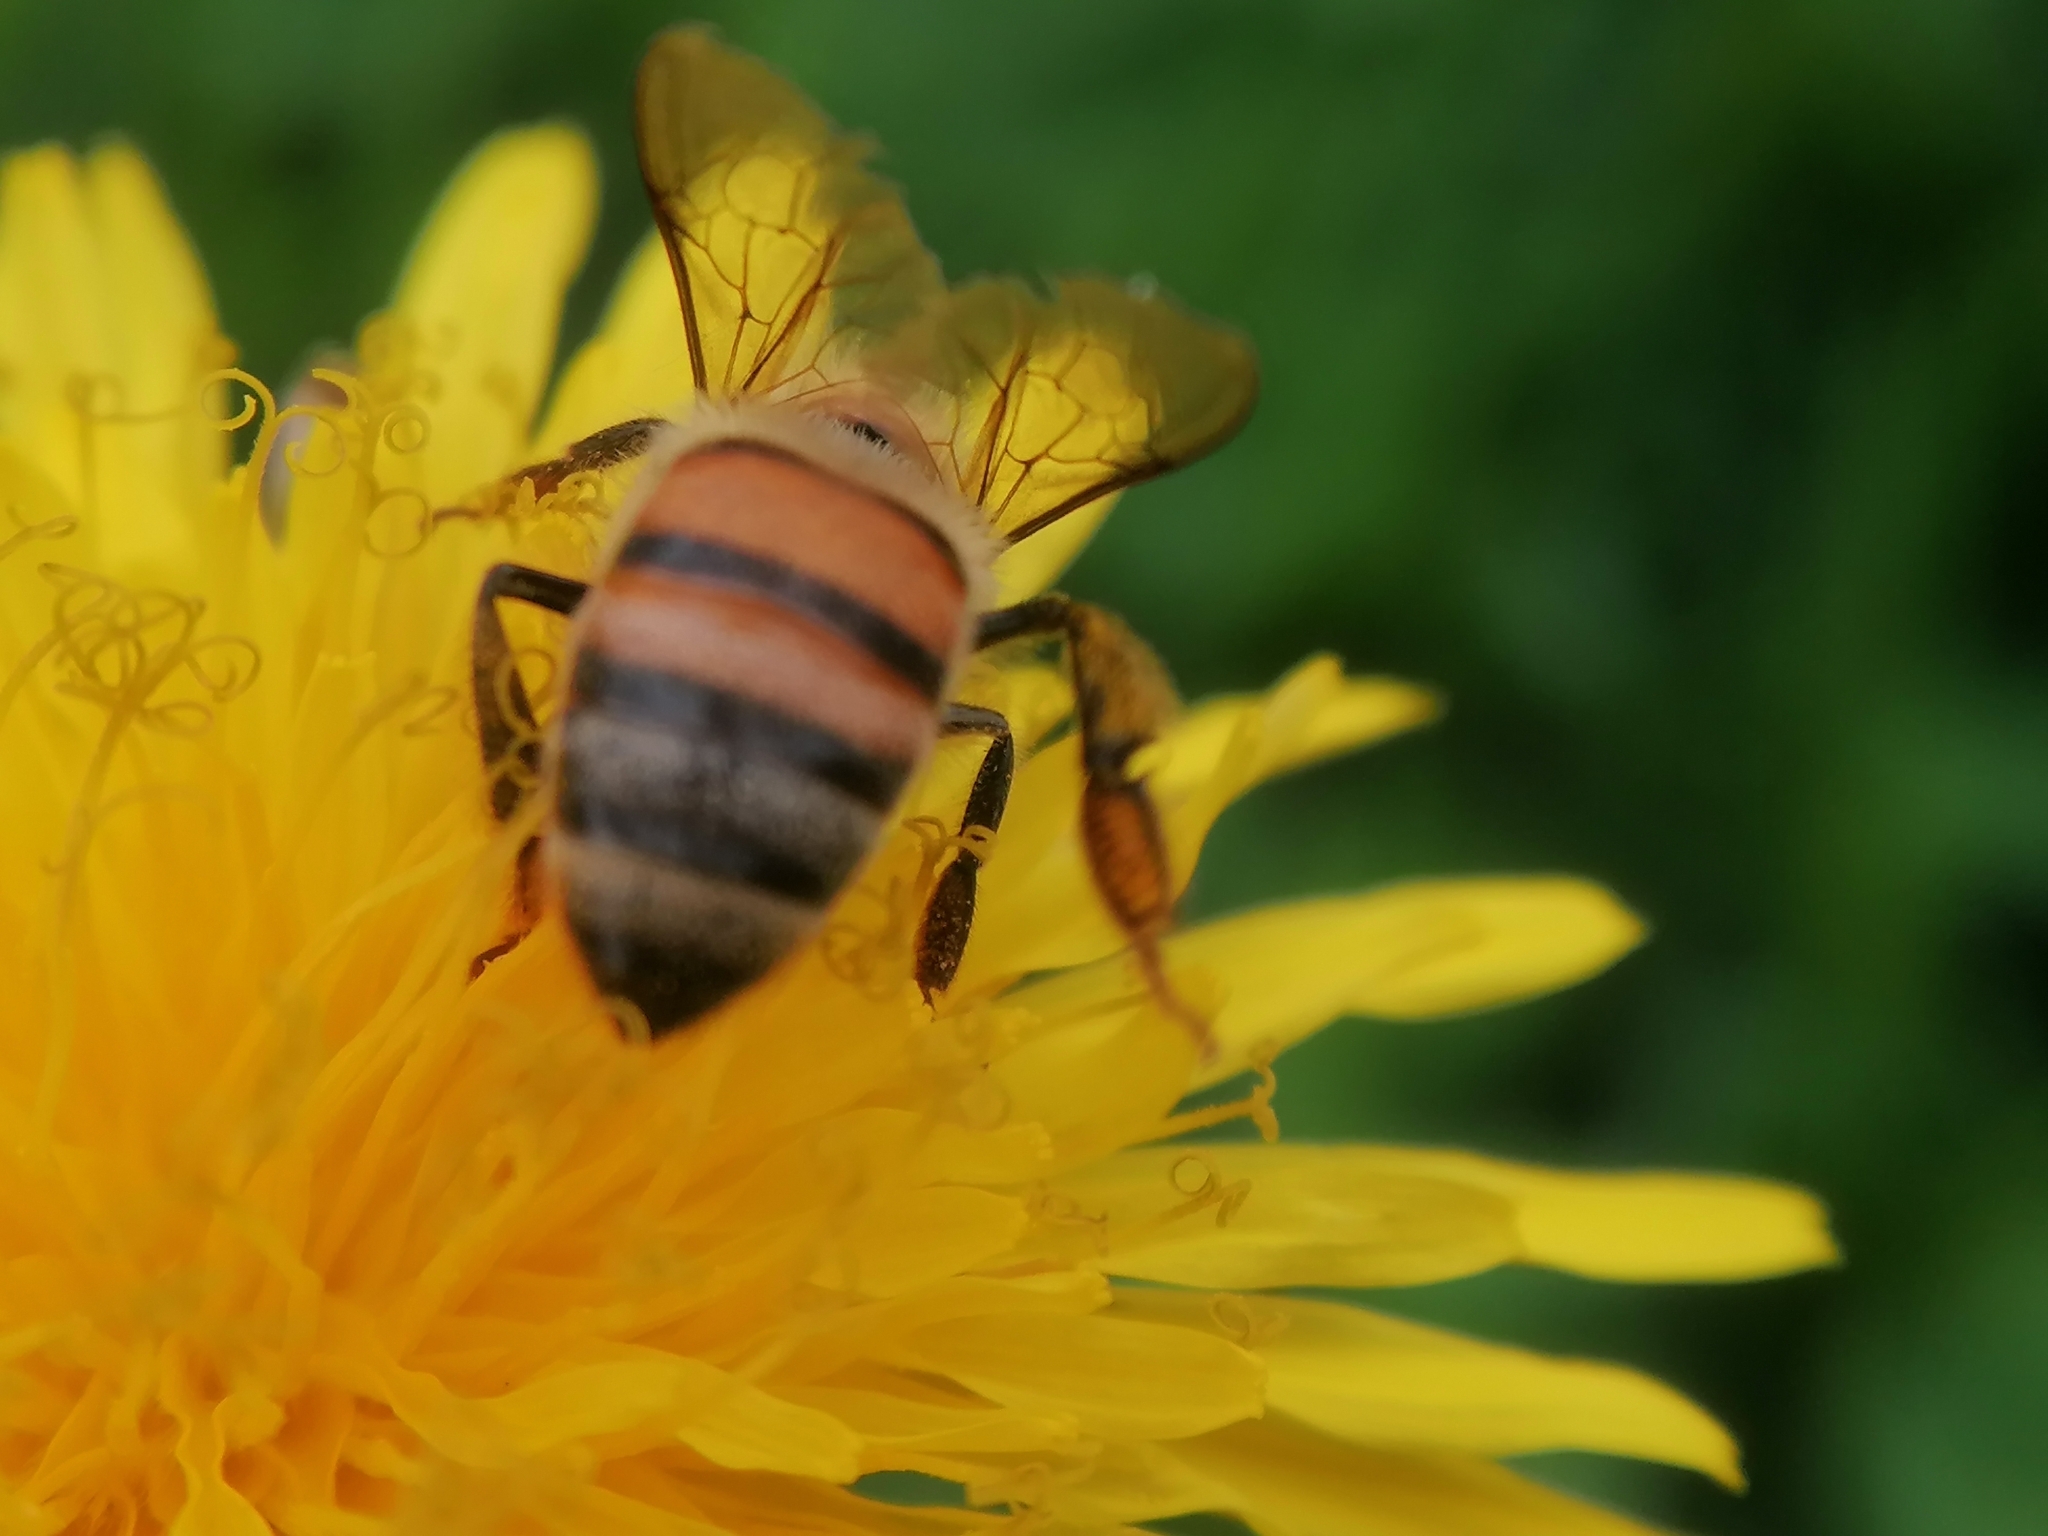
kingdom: Animalia
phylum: Arthropoda
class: Insecta
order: Hymenoptera
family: Apidae
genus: Apis
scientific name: Apis mellifera
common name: Honey bee
